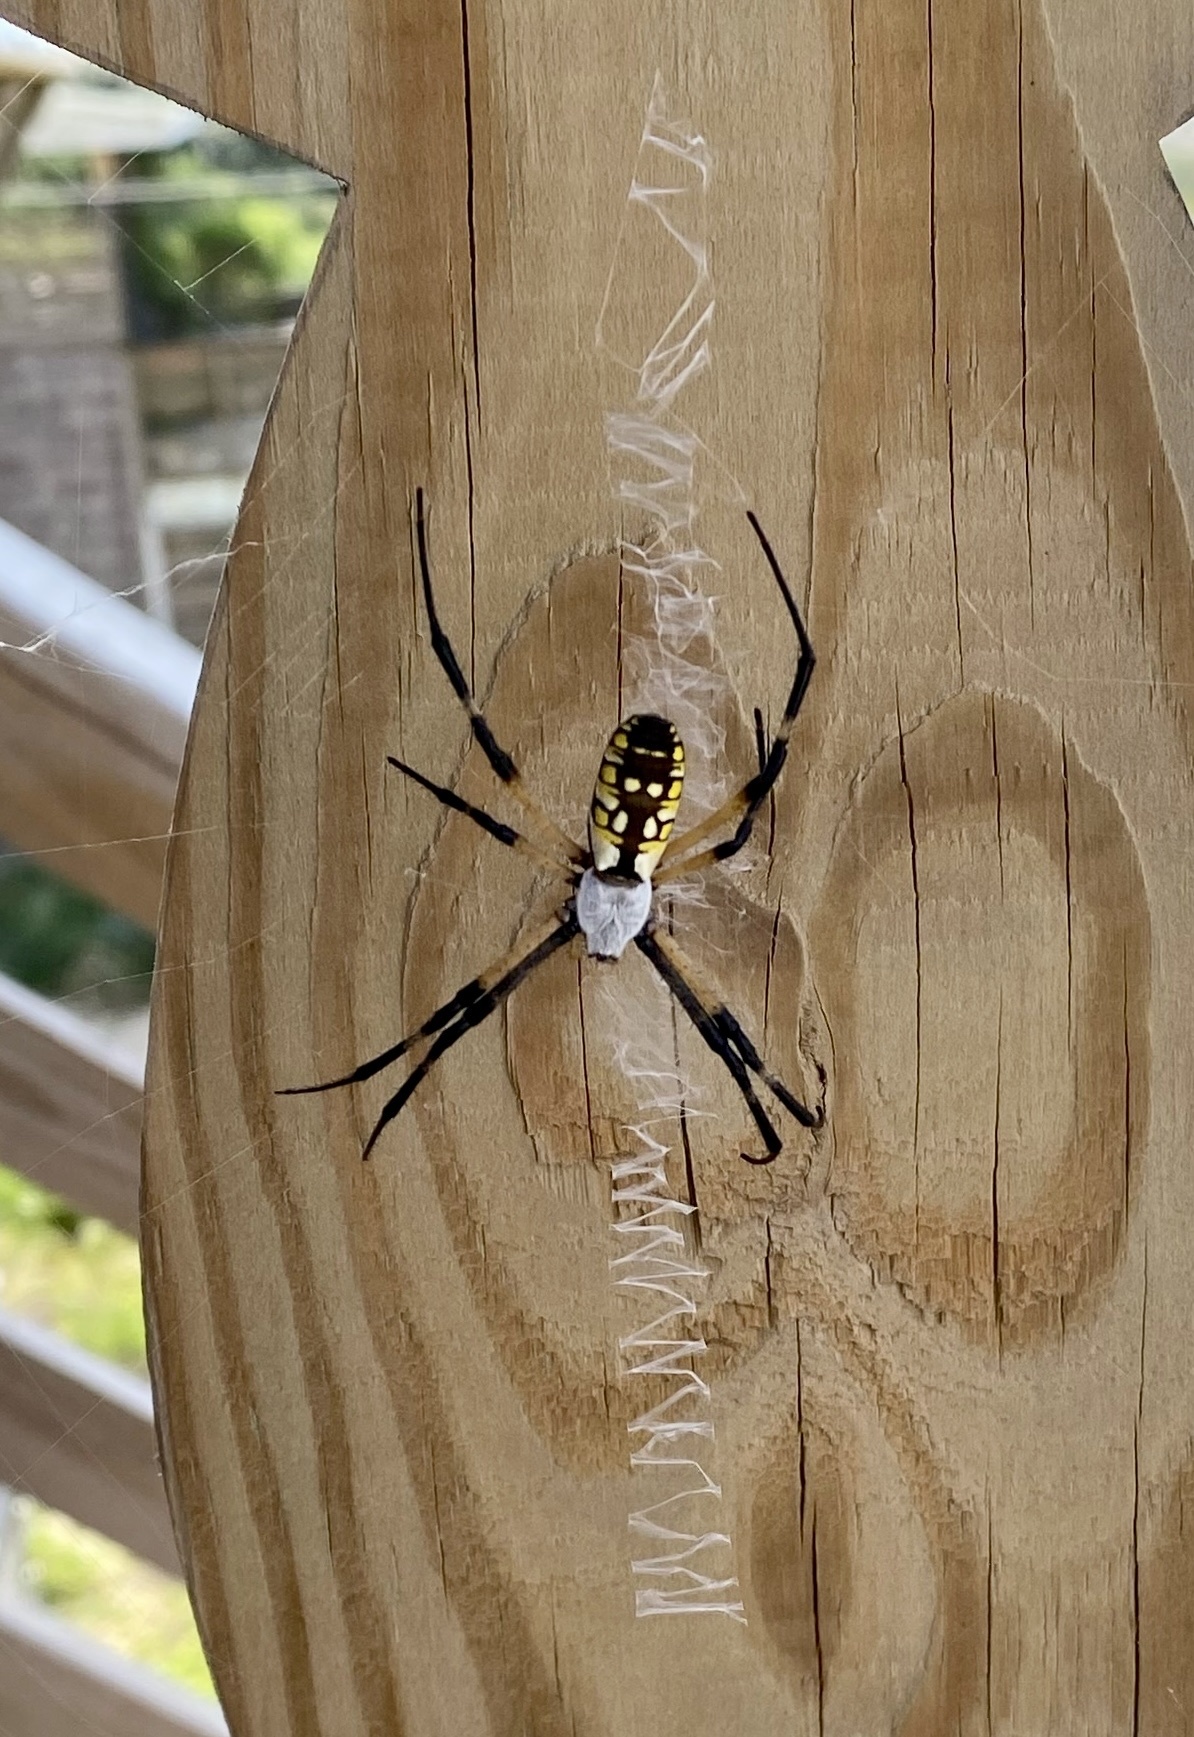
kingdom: Animalia
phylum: Arthropoda
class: Arachnida
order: Araneae
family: Araneidae
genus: Argiope
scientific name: Argiope aurantia
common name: Orb weavers
